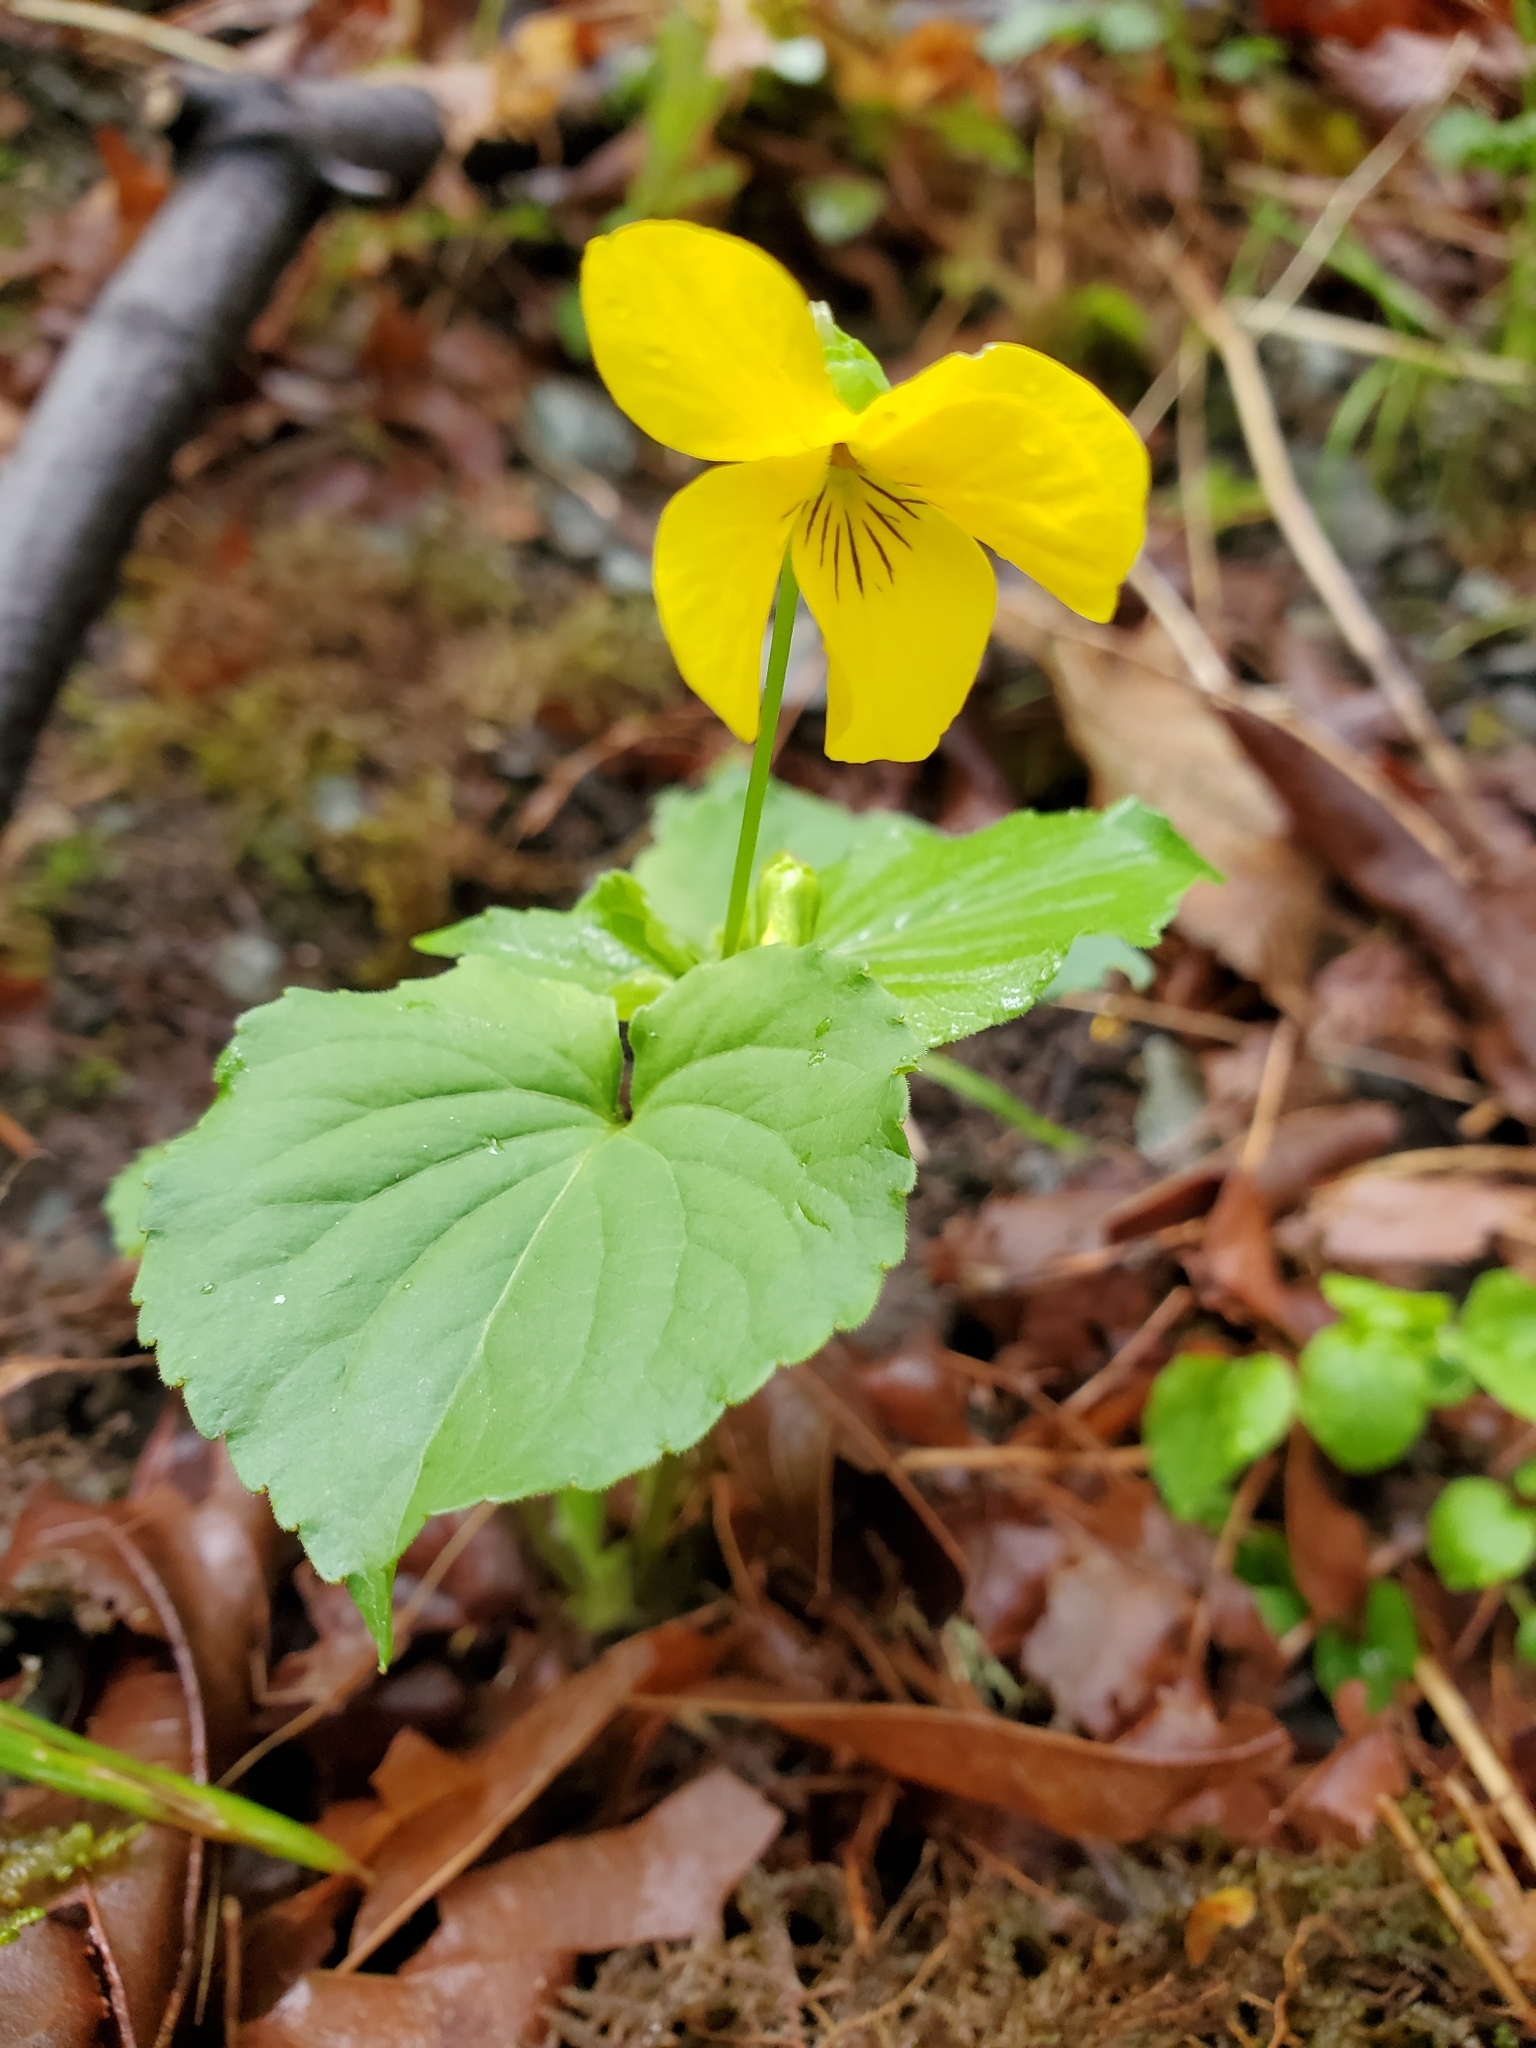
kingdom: Plantae
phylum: Tracheophyta
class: Magnoliopsida
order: Malpighiales
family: Violaceae
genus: Viola
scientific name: Viola glabella
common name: Stream violet
